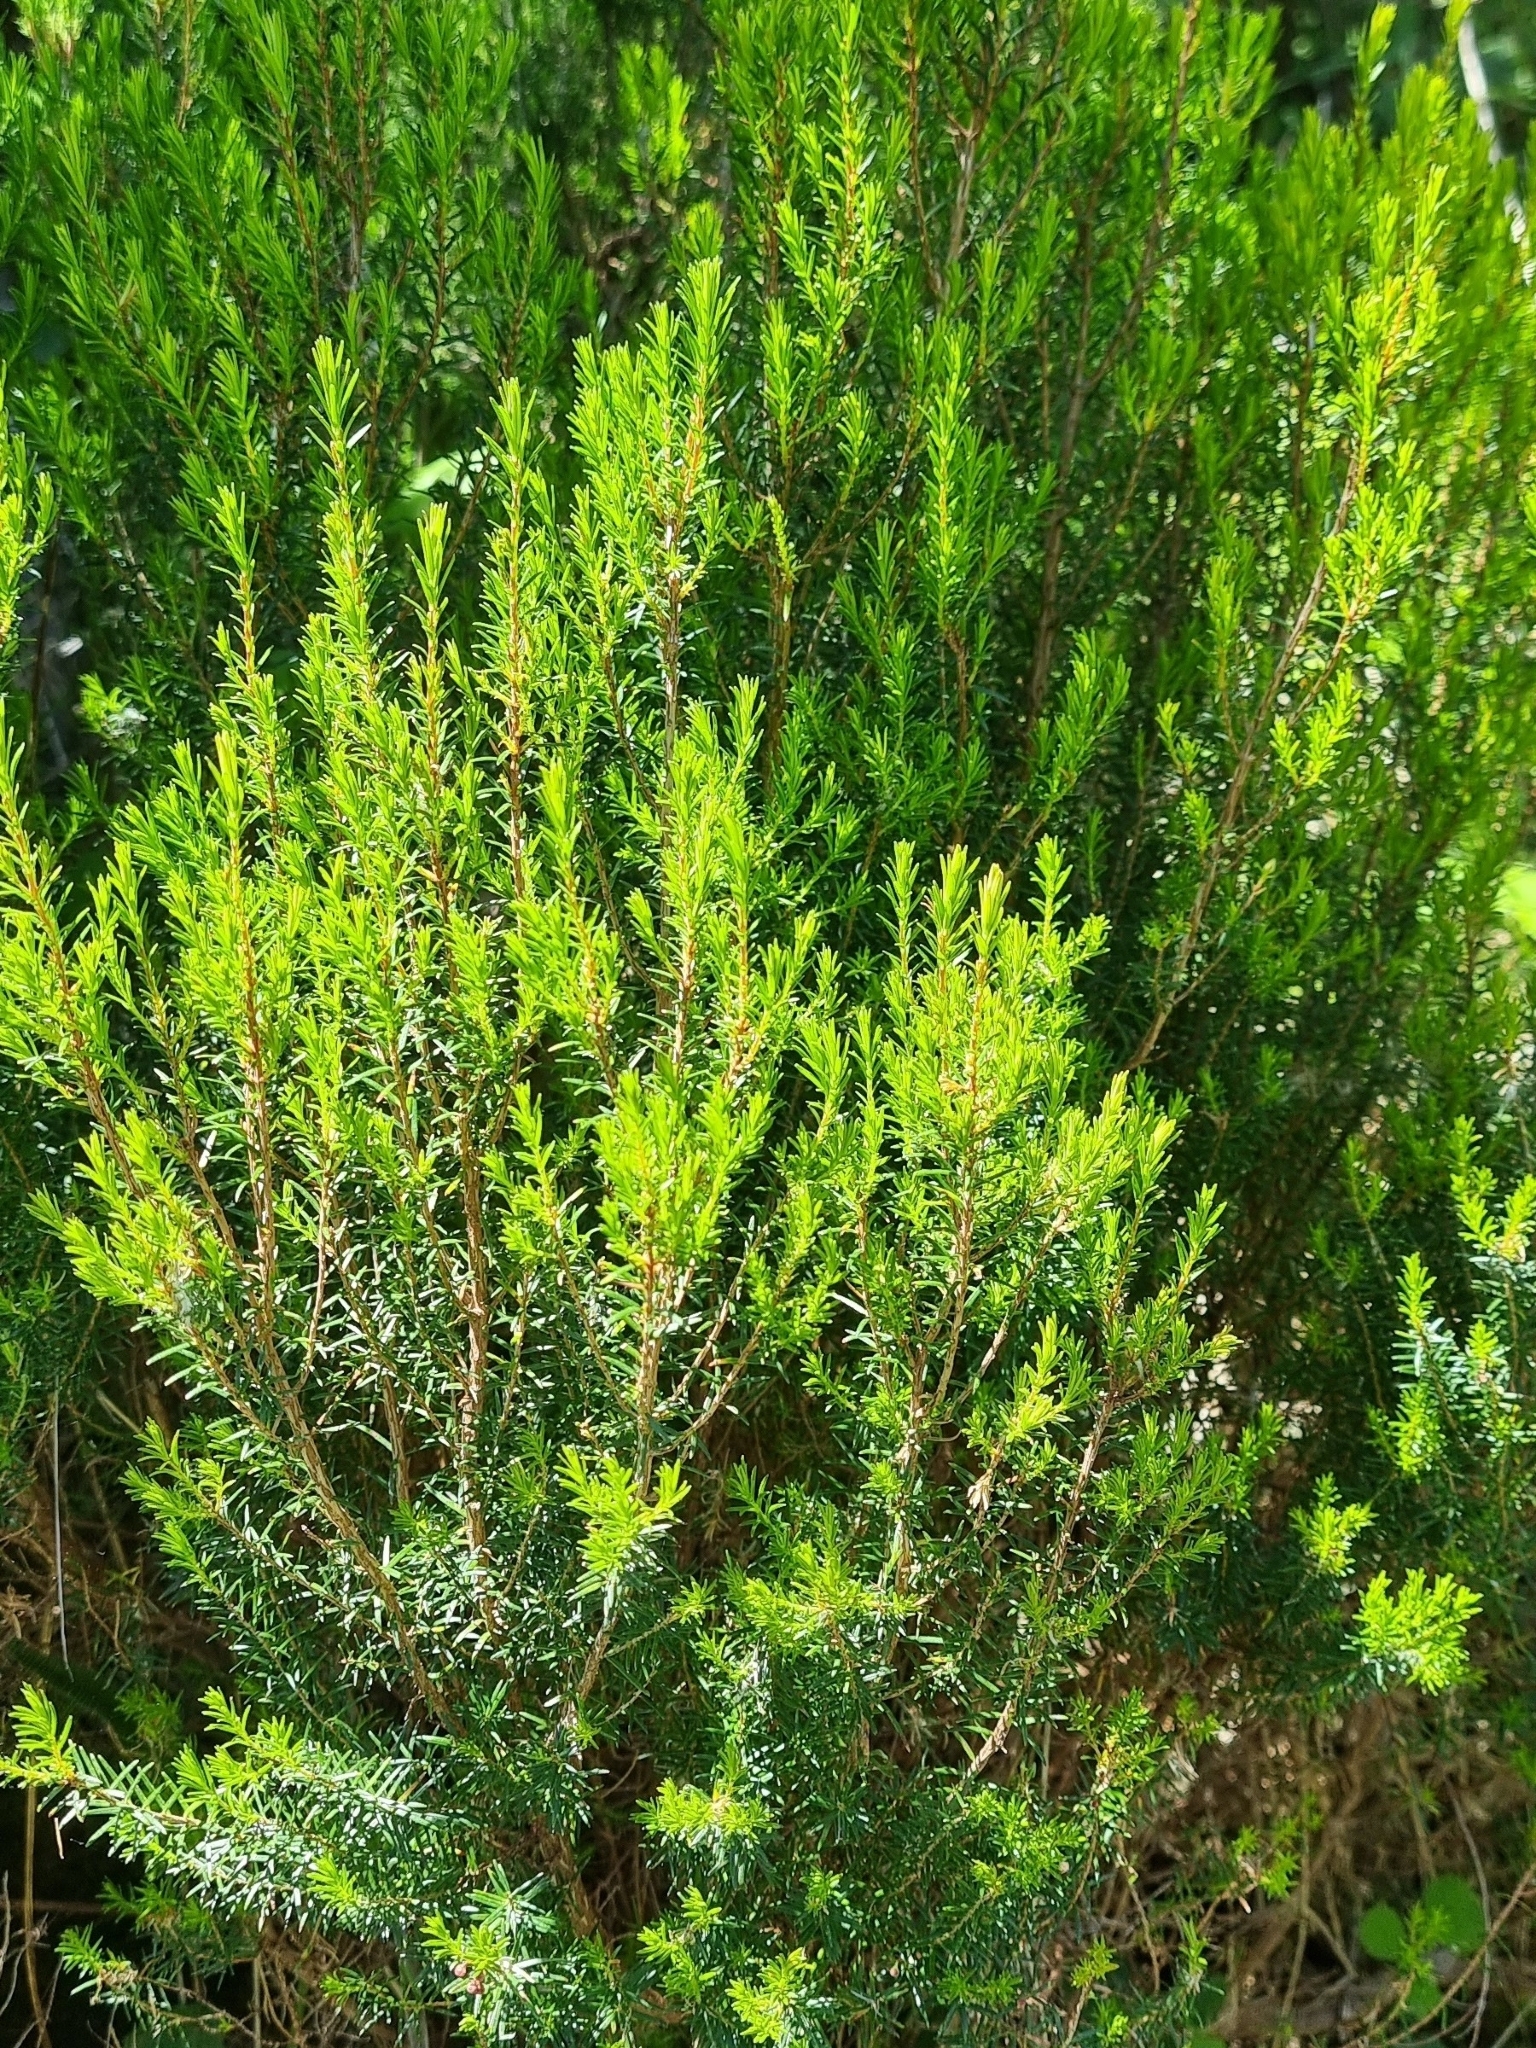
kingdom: Plantae
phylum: Tracheophyta
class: Magnoliopsida
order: Ericales
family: Ericaceae
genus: Erica
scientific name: Erica platycodon
